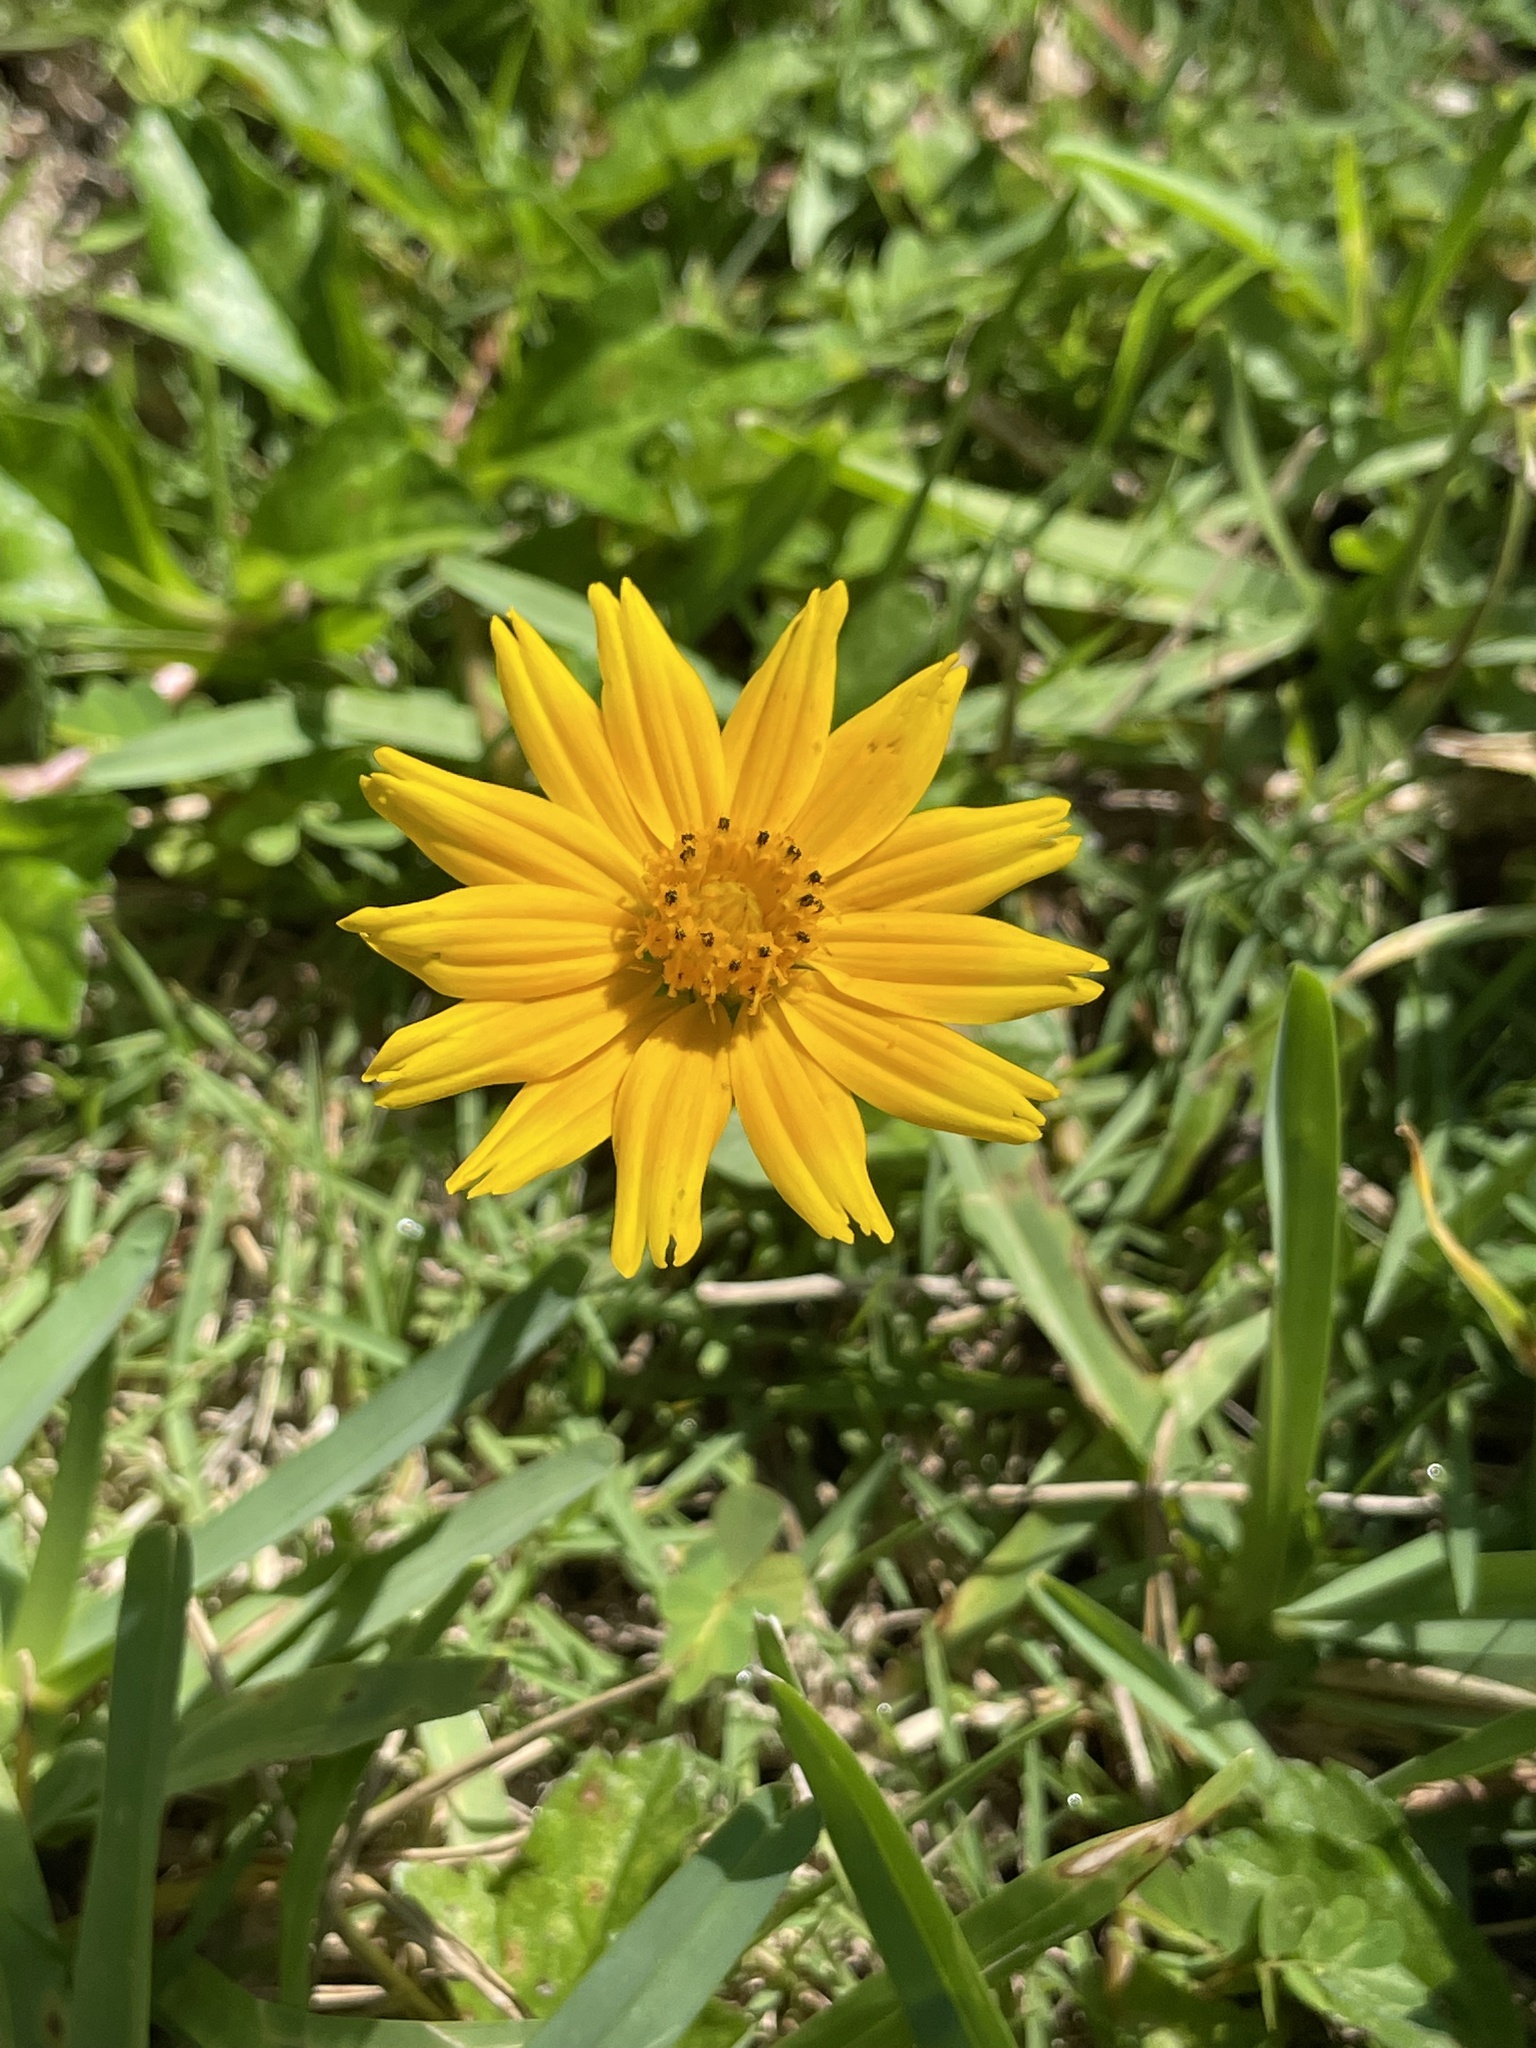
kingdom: Plantae
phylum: Tracheophyta
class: Magnoliopsida
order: Asterales
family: Asteraceae
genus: Sphagneticola
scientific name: Sphagneticola trilobata
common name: Bay biscayne creeping-oxeye
